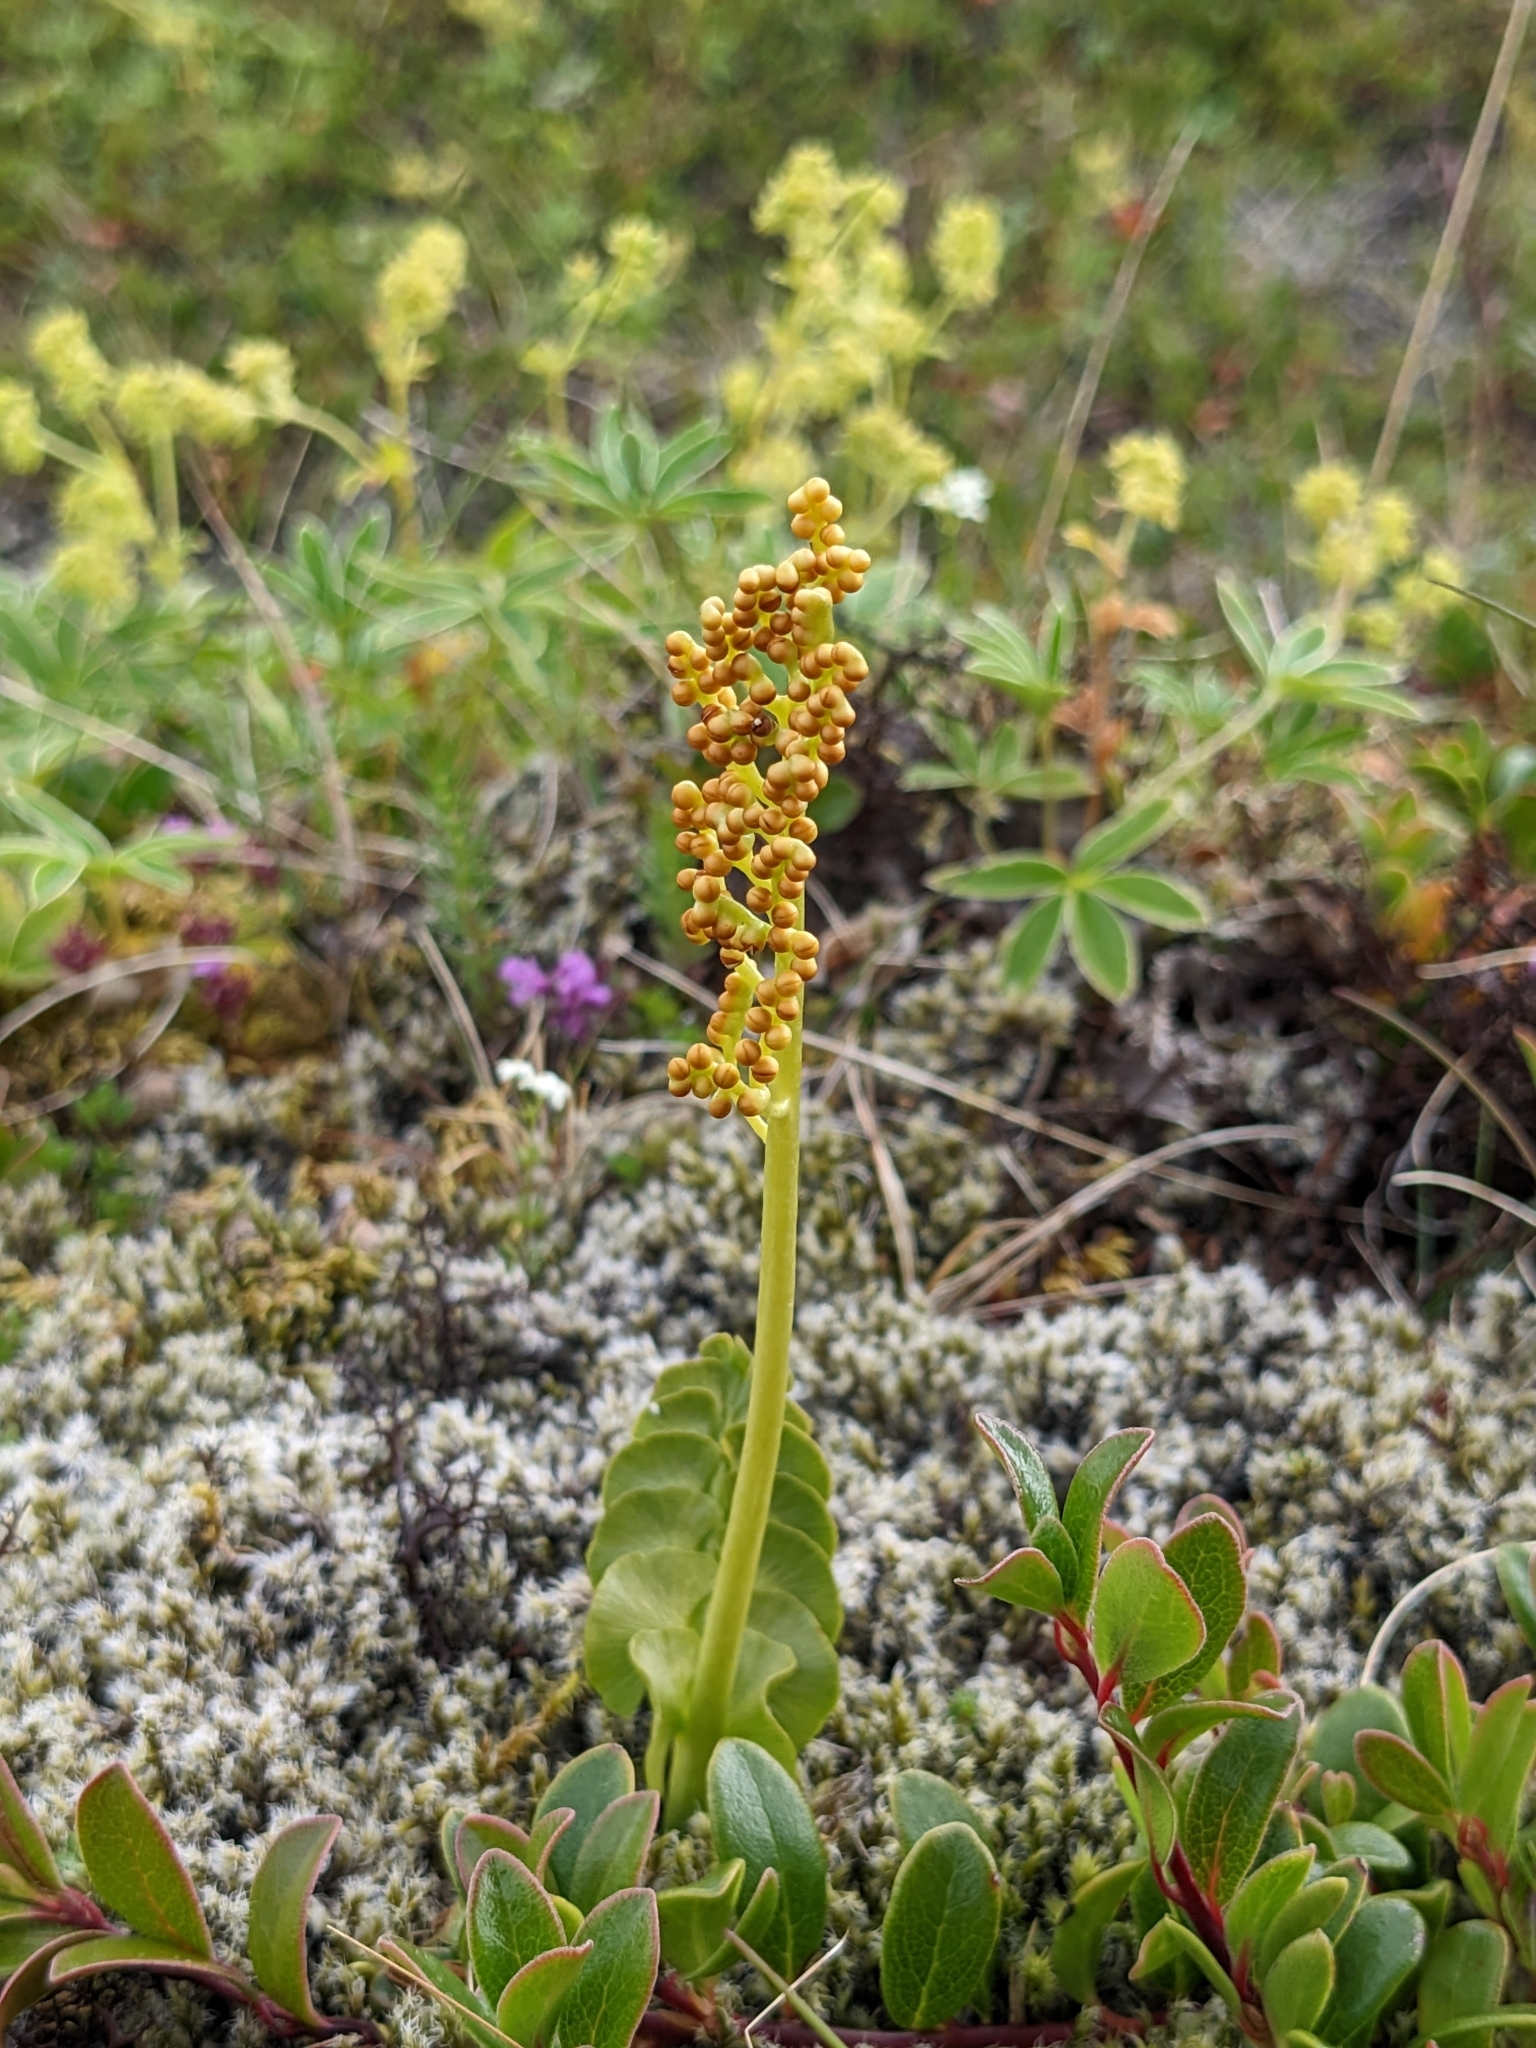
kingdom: Plantae
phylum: Tracheophyta
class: Polypodiopsida
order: Ophioglossales
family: Ophioglossaceae
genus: Botrychium
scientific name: Botrychium lunaria
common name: Moonwort
